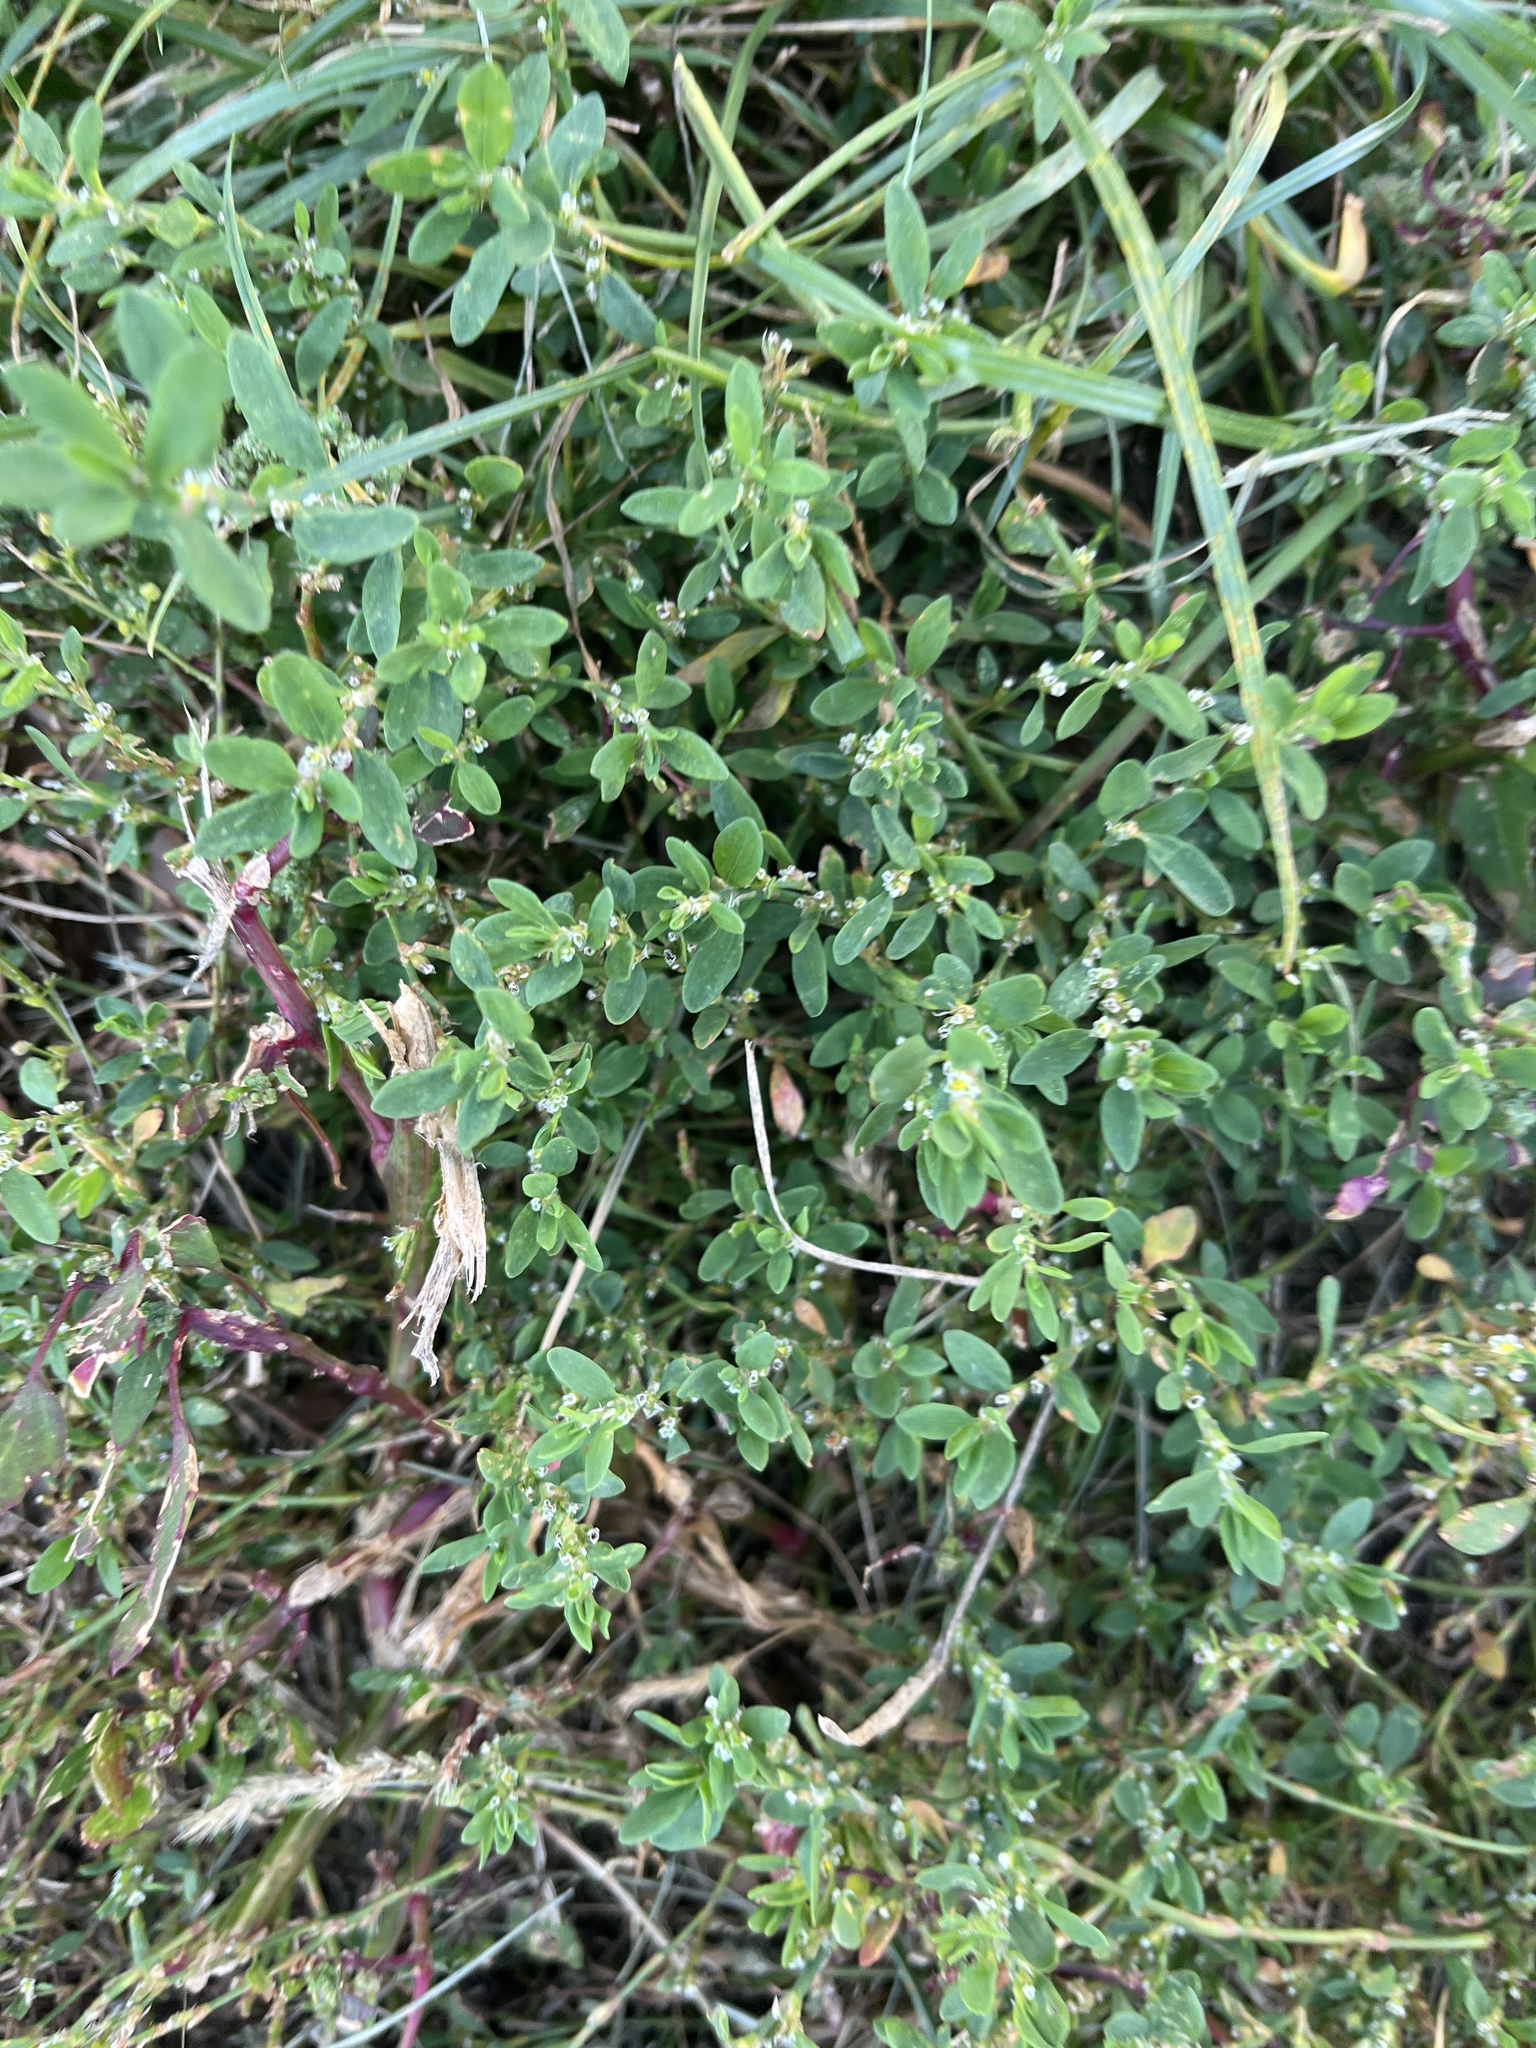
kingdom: Plantae
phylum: Tracheophyta
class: Magnoliopsida
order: Caryophyllales
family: Polygonaceae
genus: Polygonum
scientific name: Polygonum aviculare
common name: Prostrate knotweed
